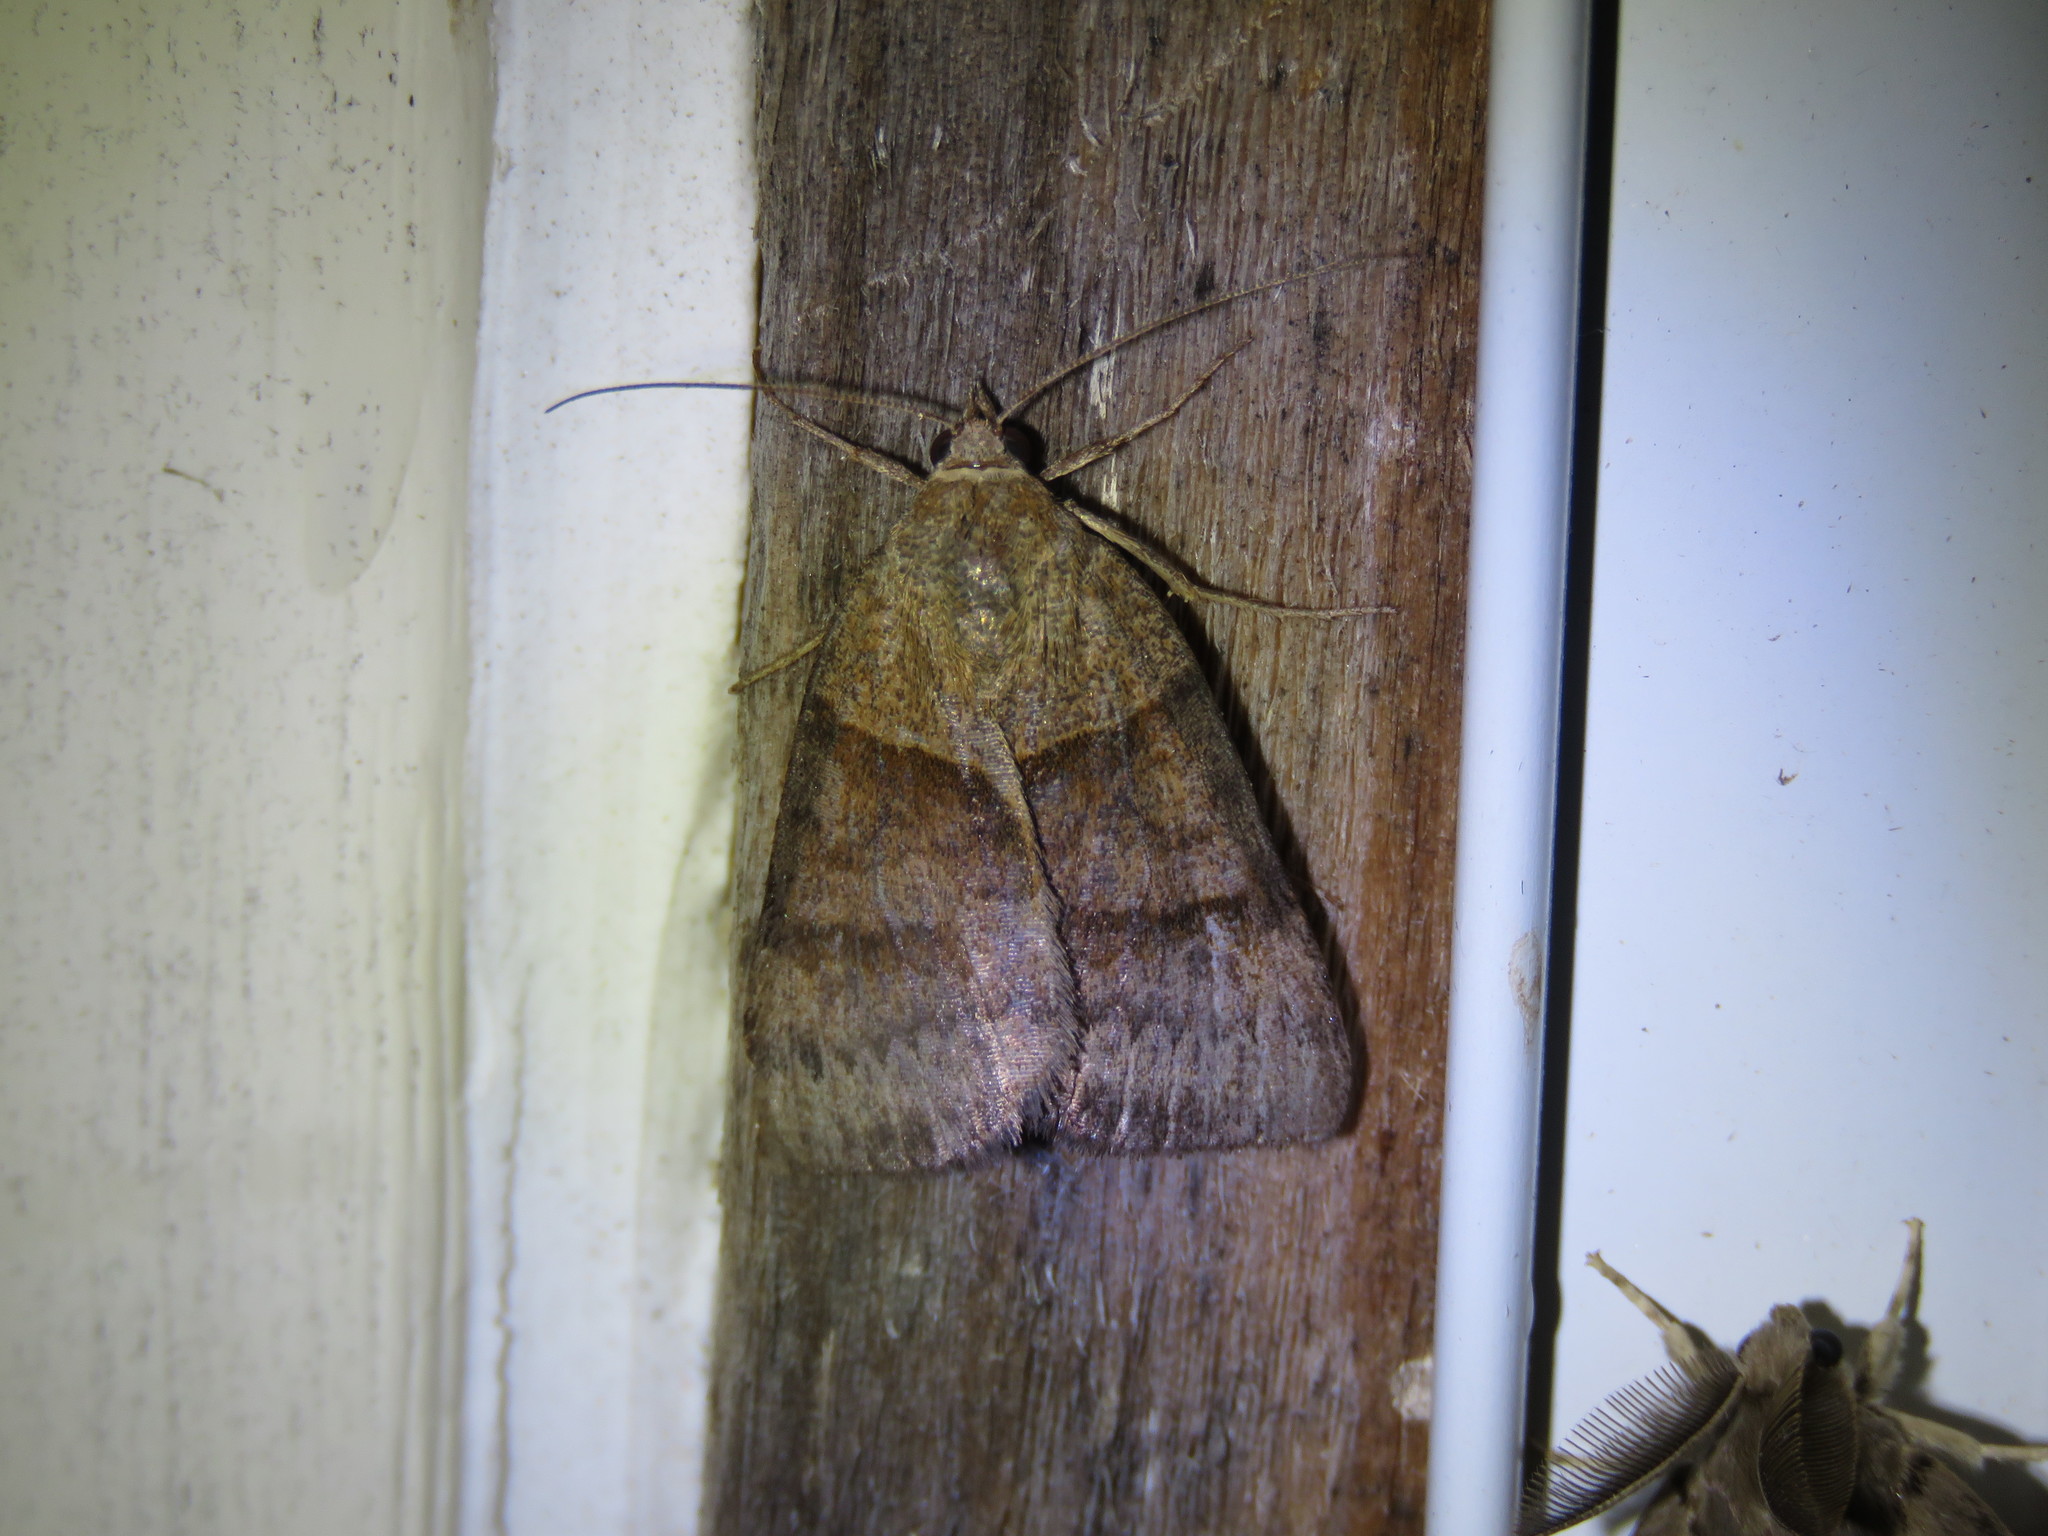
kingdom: Animalia
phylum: Arthropoda
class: Insecta
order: Lepidoptera
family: Erebidae
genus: Caenurgina
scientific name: Caenurgina crassiuscula
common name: Double-barred
